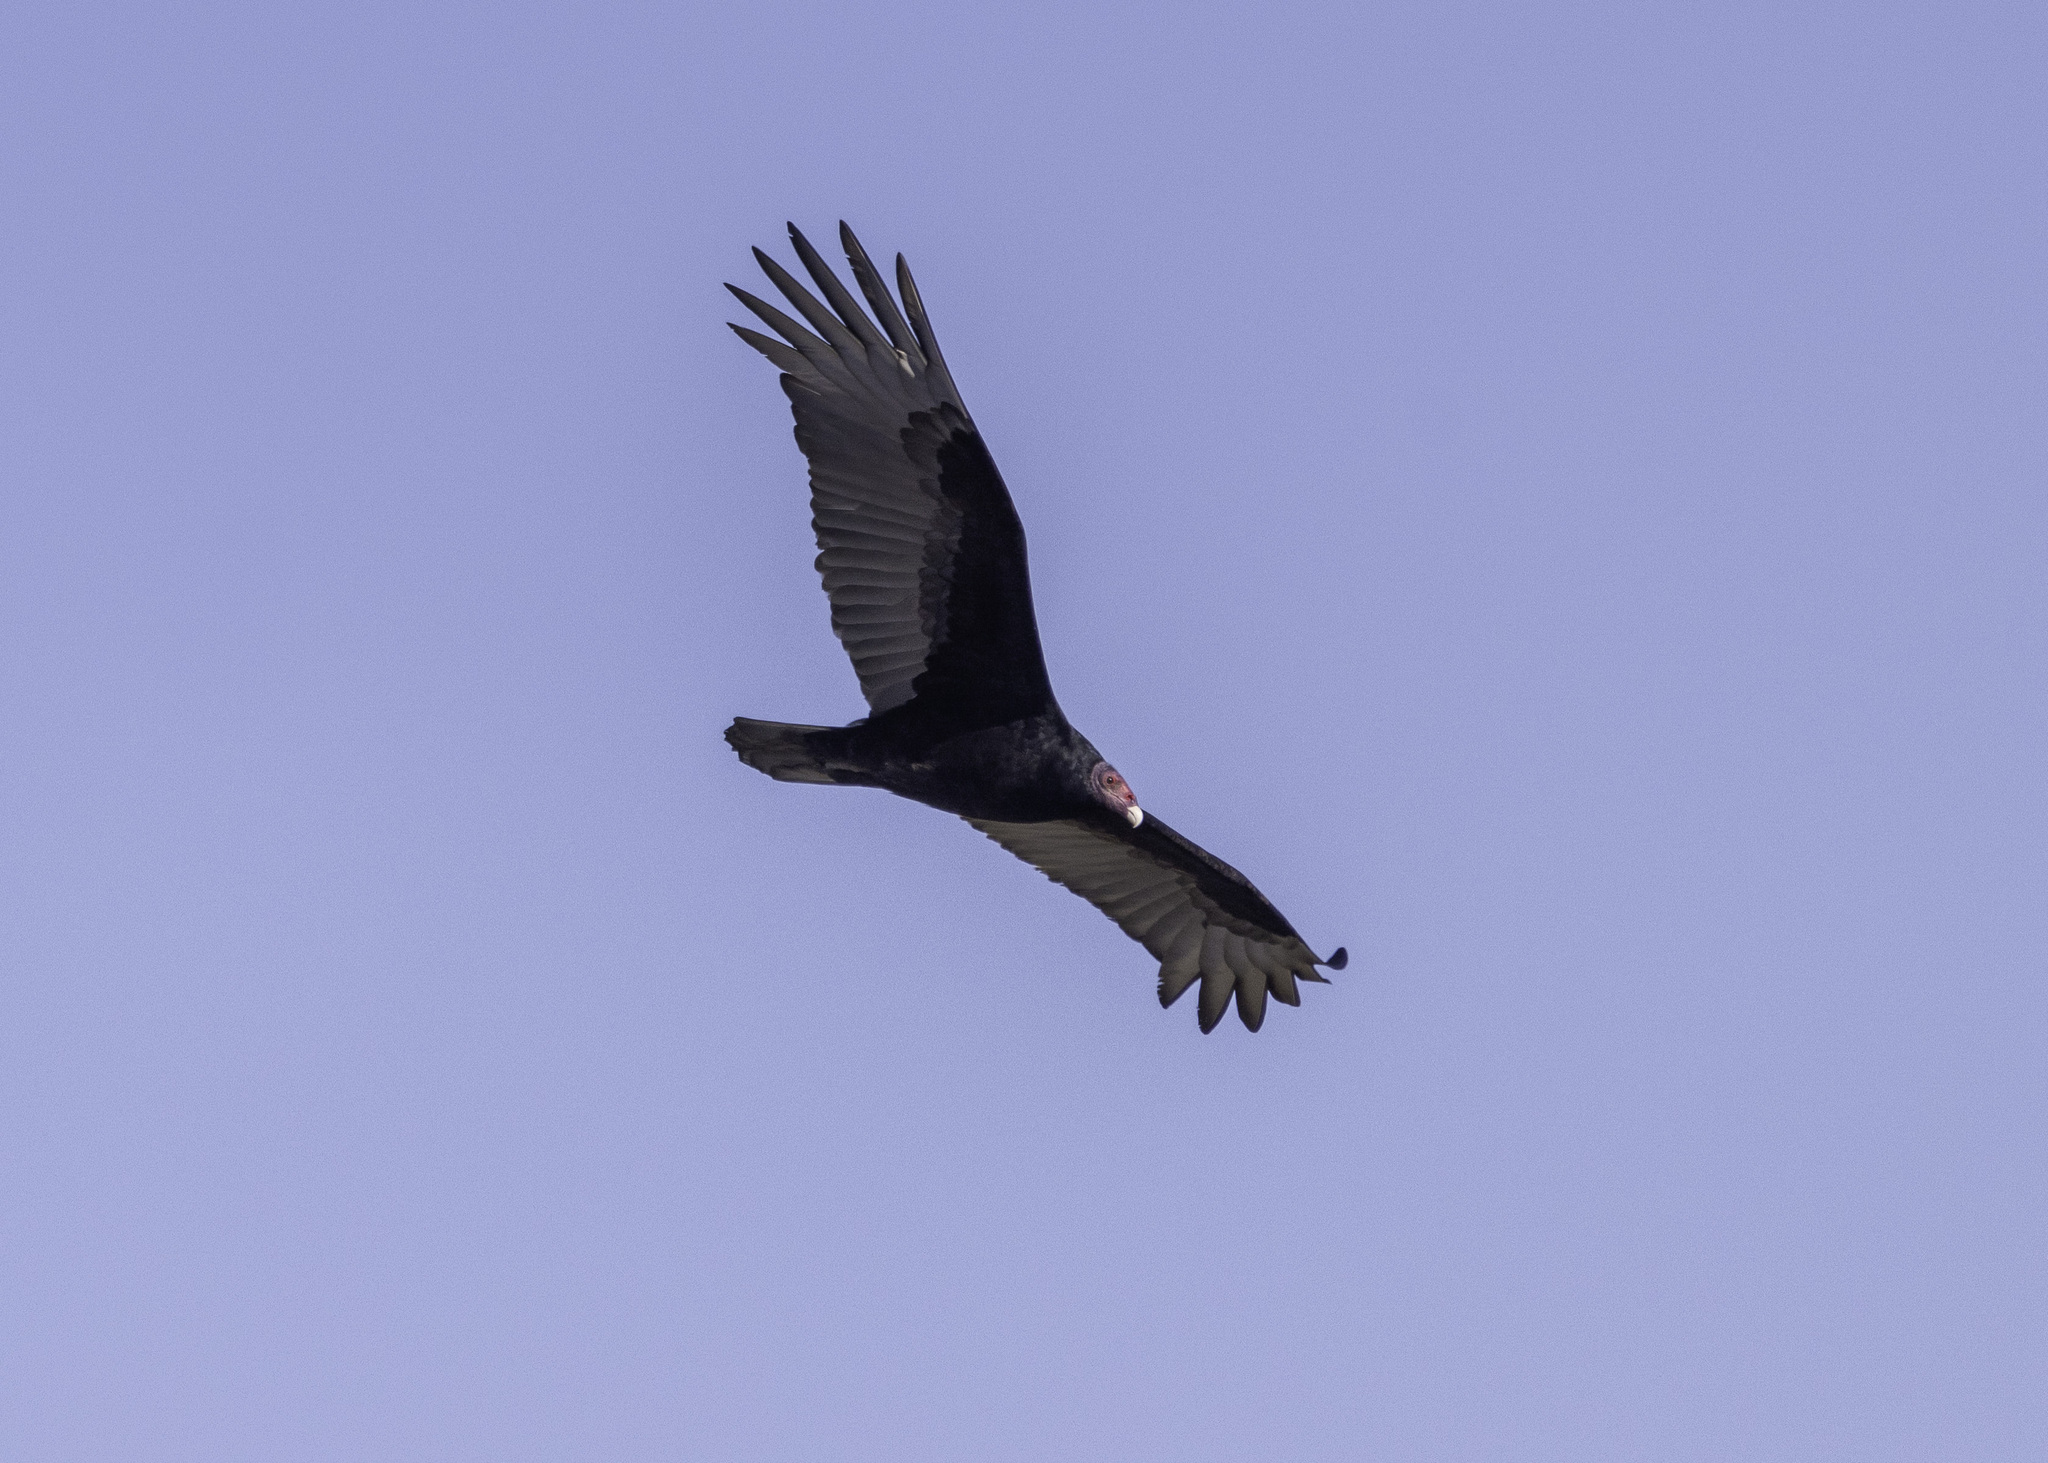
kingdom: Animalia
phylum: Chordata
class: Aves
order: Accipitriformes
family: Cathartidae
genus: Cathartes
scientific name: Cathartes aura
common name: Turkey vulture
